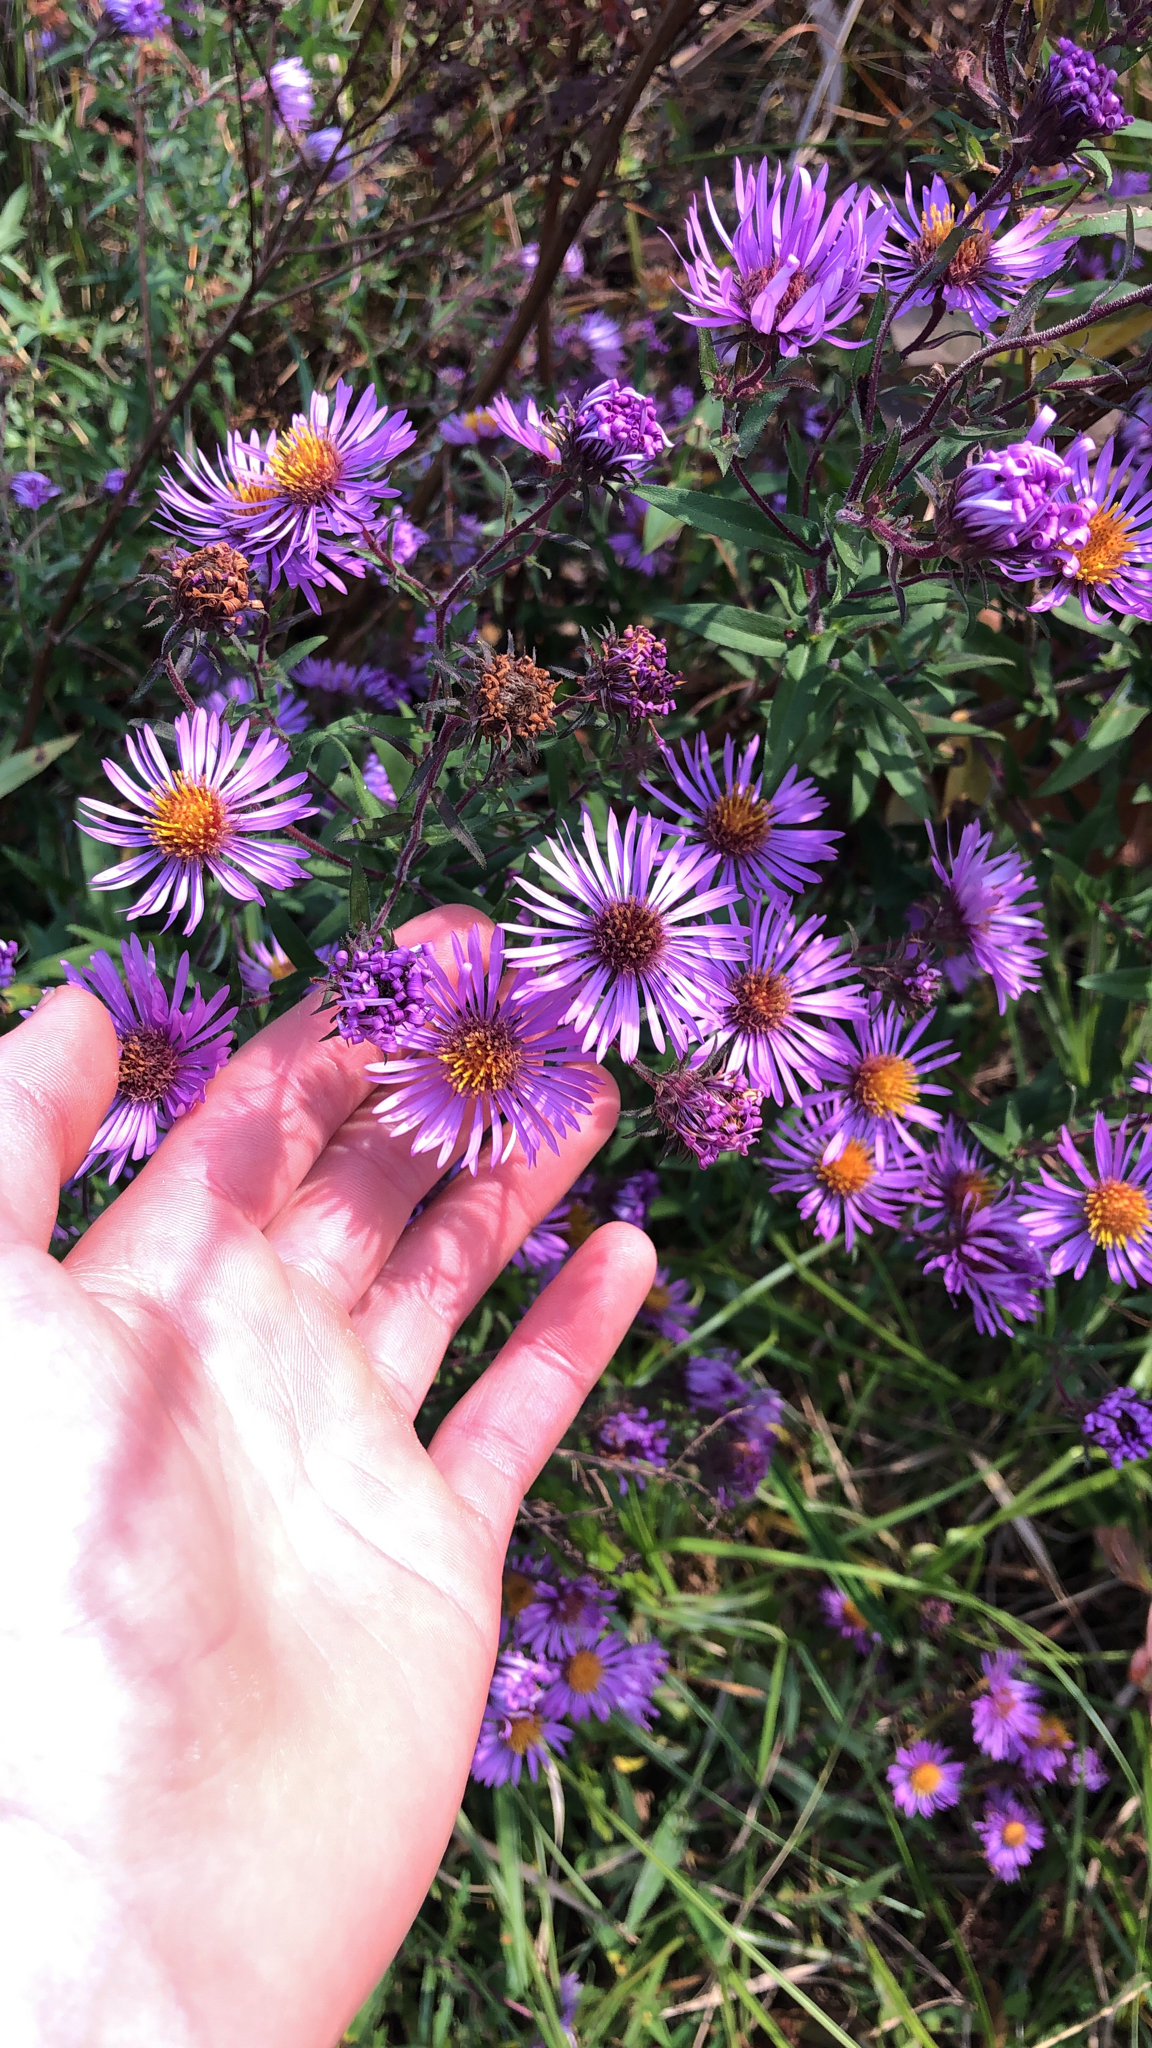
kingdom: Plantae
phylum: Tracheophyta
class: Magnoliopsida
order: Asterales
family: Asteraceae
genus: Symphyotrichum
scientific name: Symphyotrichum novae-angliae
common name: Michaelmas daisy
